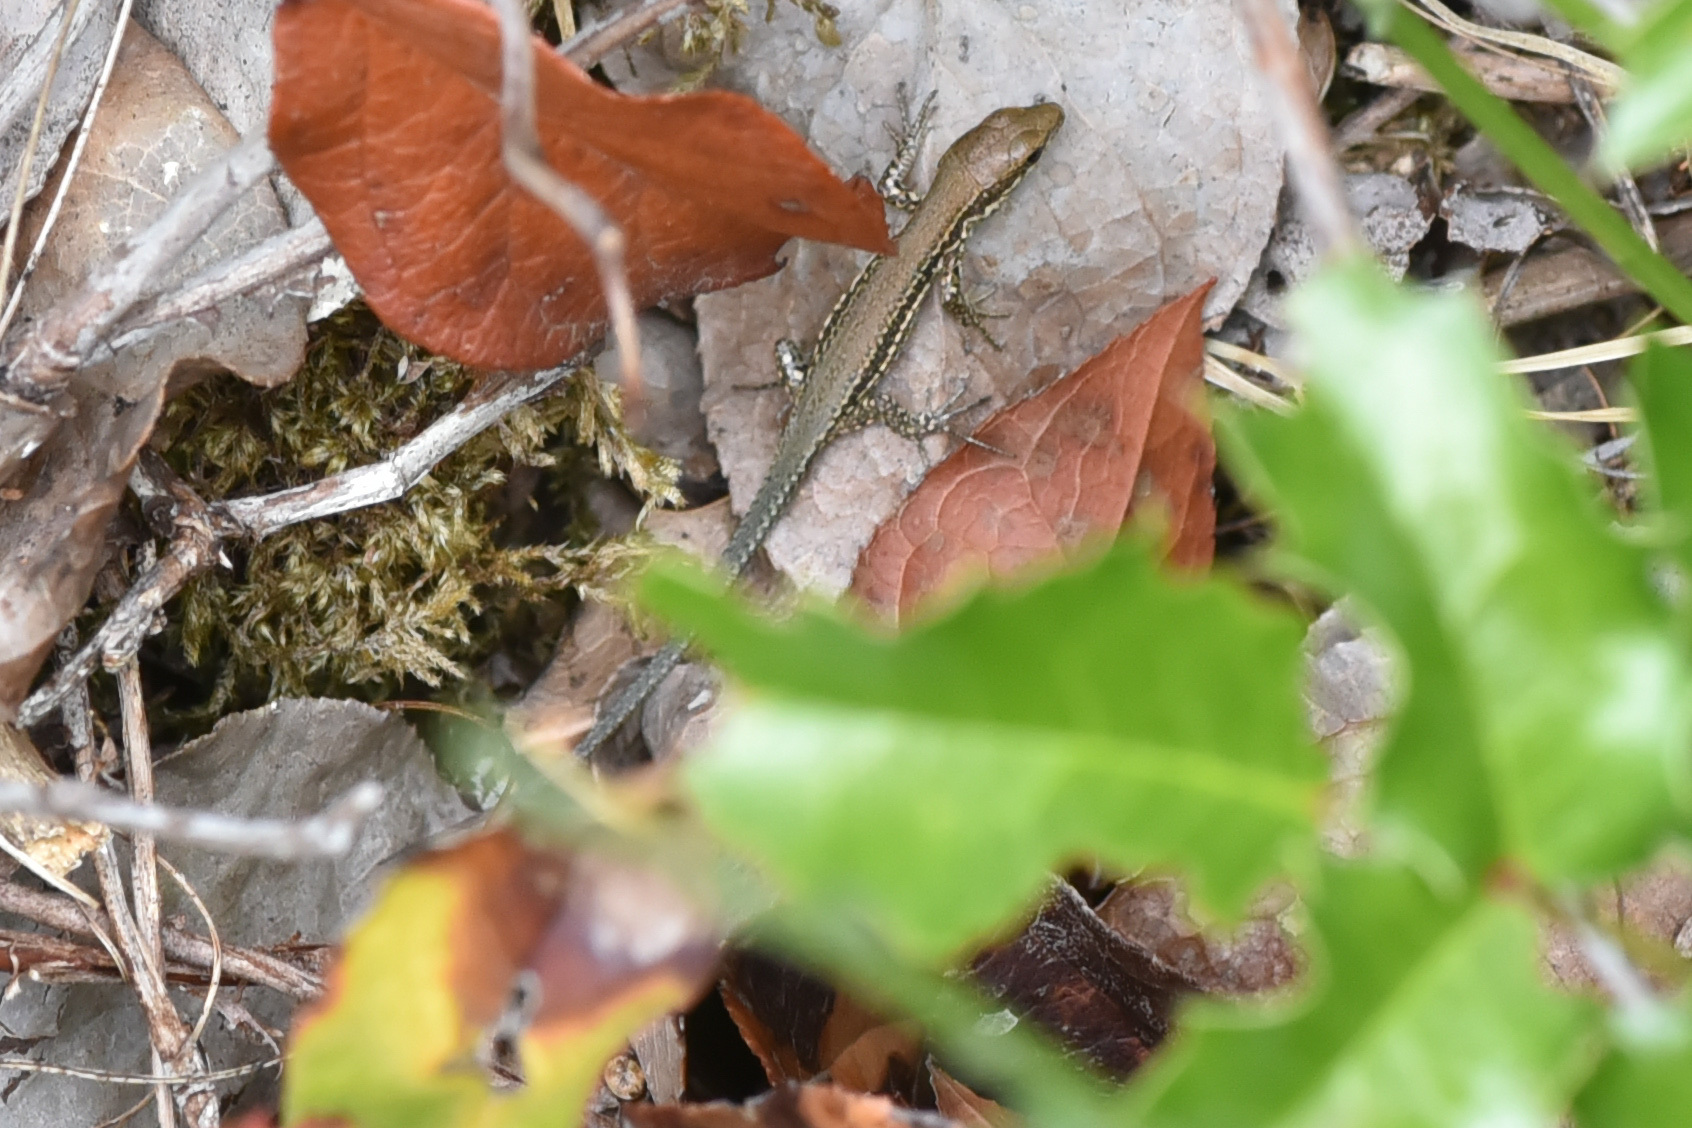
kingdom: Animalia
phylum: Chordata
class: Squamata
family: Lacertidae
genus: Podarcis
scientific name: Podarcis muralis
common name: Common wall lizard
